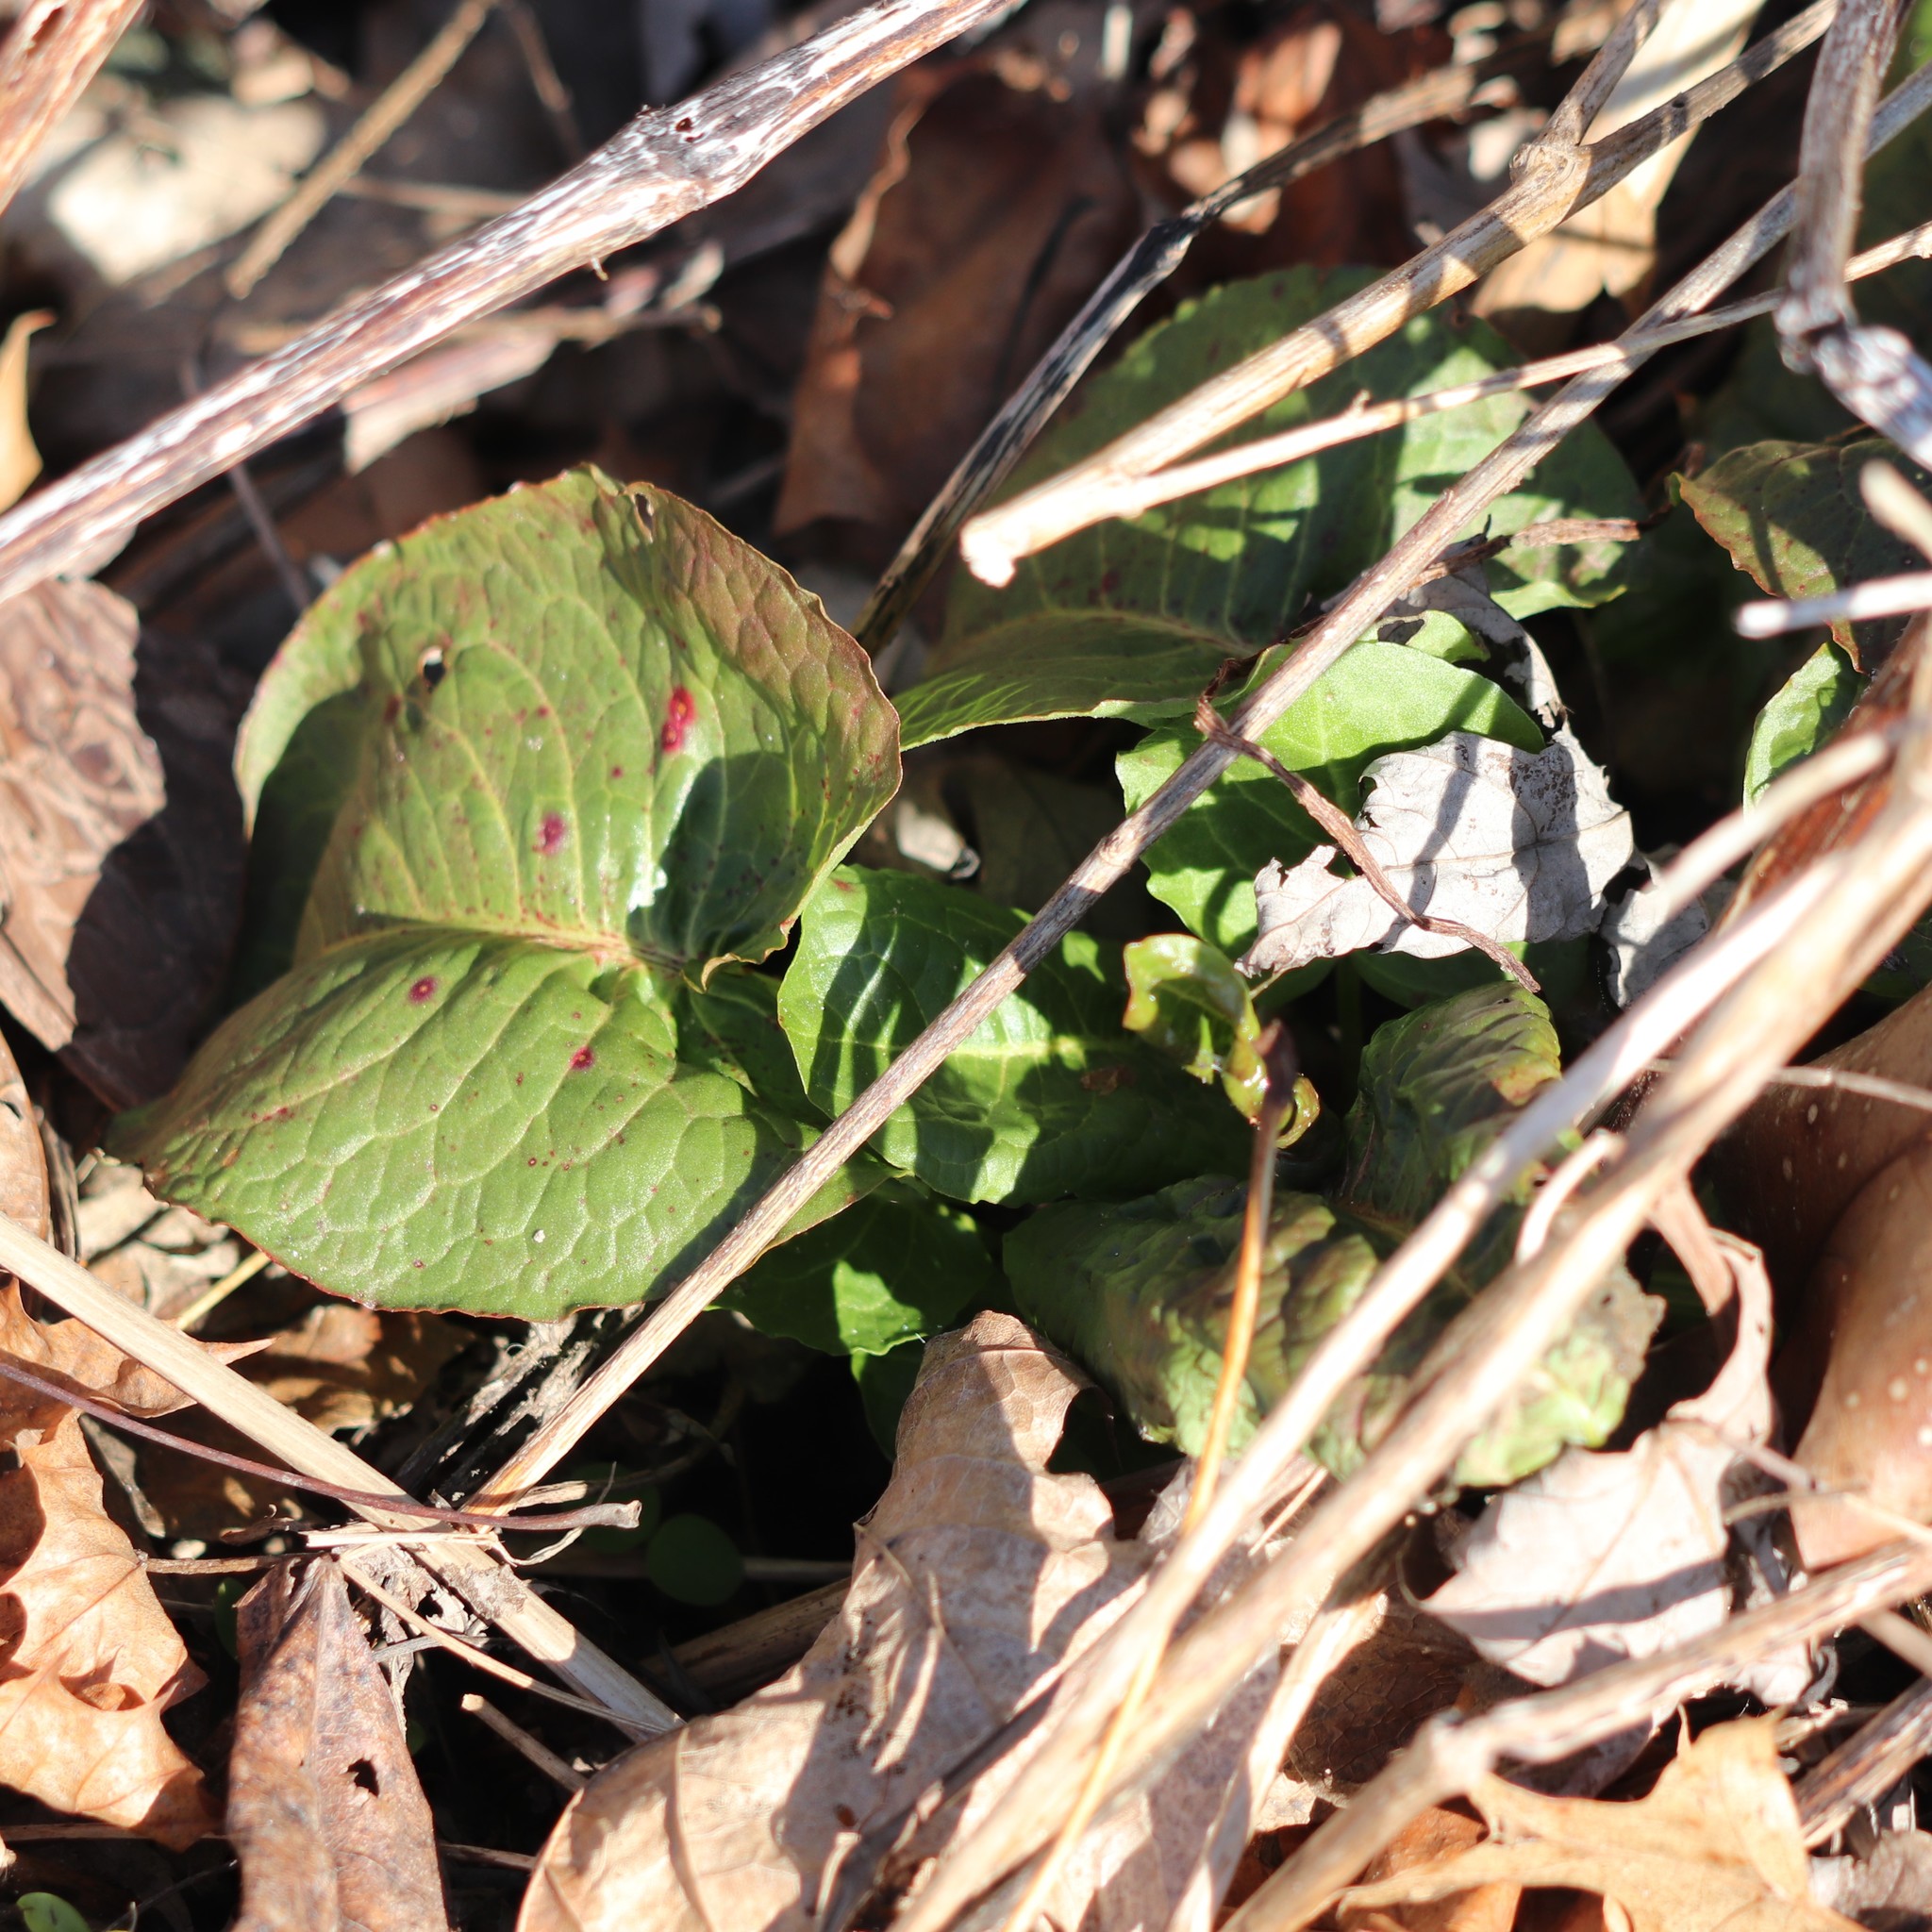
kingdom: Plantae
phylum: Tracheophyta
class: Magnoliopsida
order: Caryophyllales
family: Polygonaceae
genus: Rumex
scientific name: Rumex obtusifolius
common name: Bitter dock
